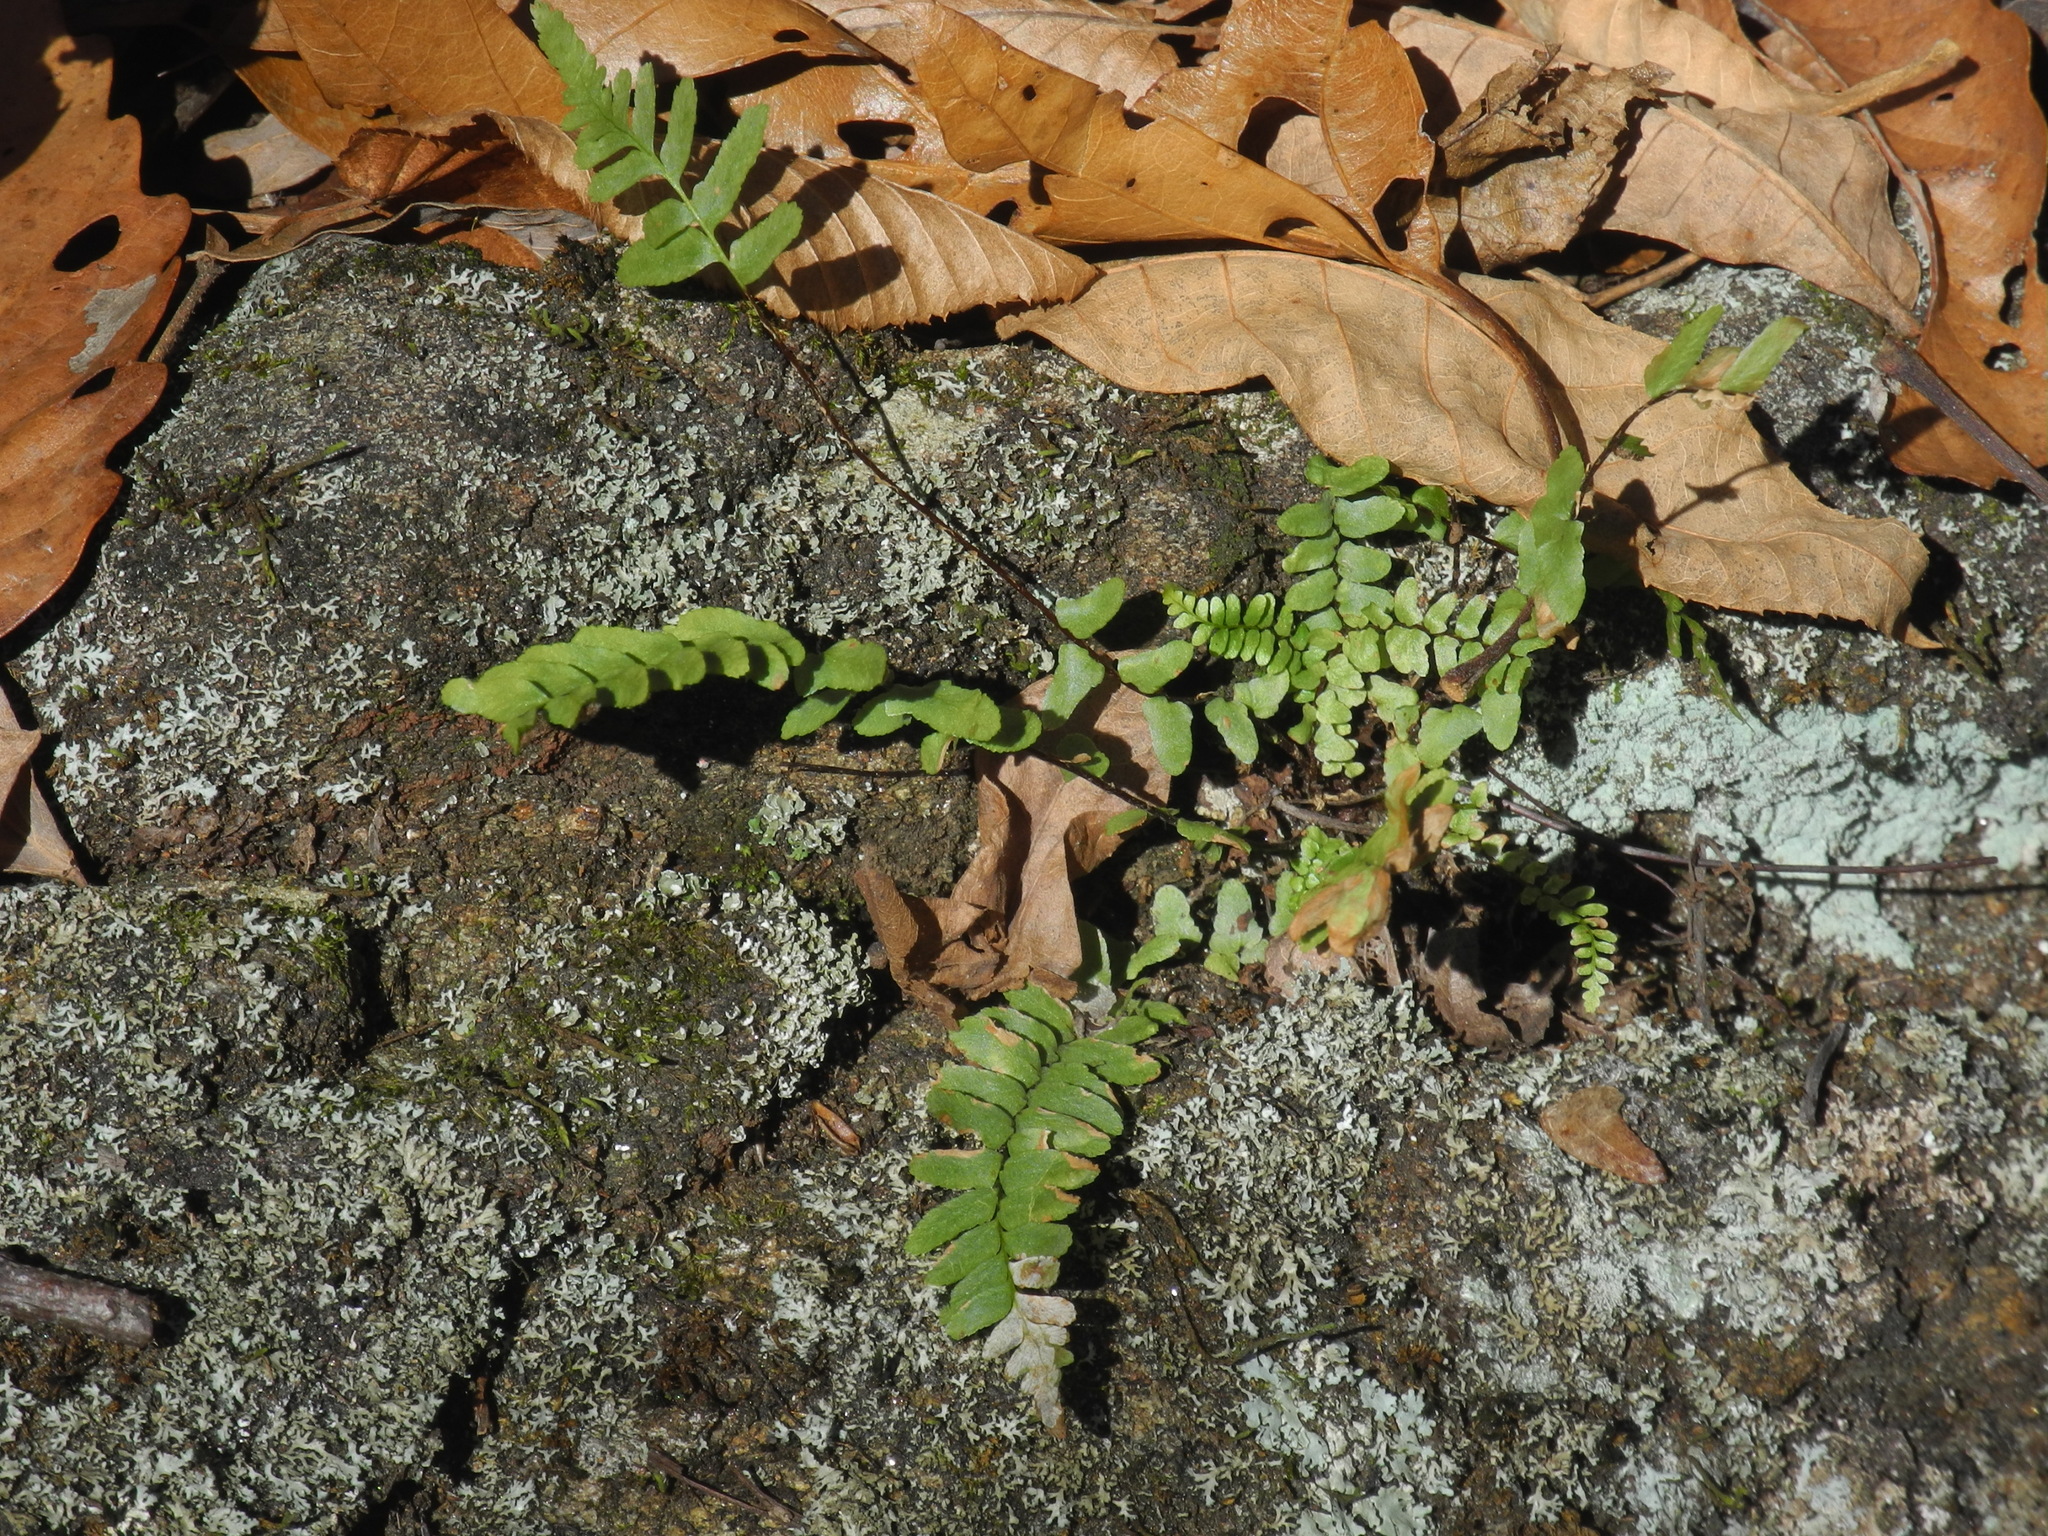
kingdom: Plantae
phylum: Tracheophyta
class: Polypodiopsida
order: Polypodiales
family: Aspleniaceae
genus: Asplenium
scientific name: Asplenium platyneuron
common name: Ebony spleenwort
